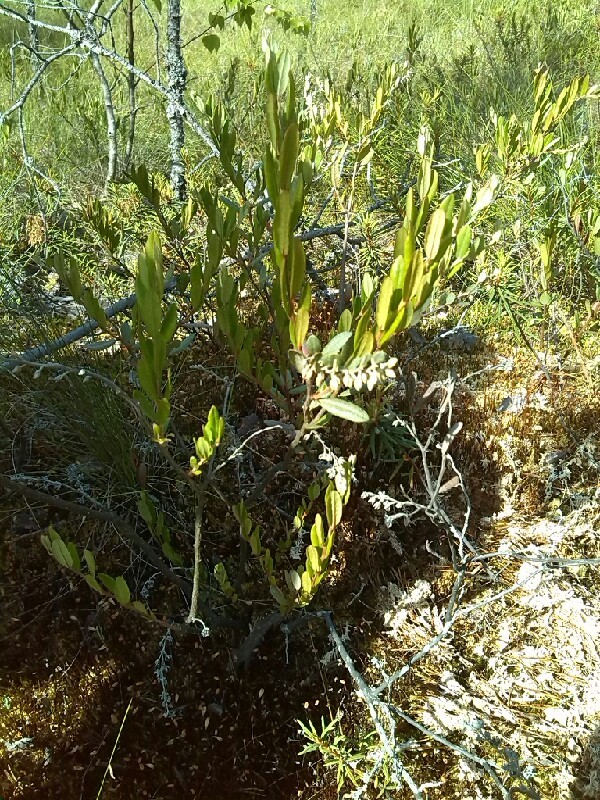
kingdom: Plantae
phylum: Tracheophyta
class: Magnoliopsida
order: Ericales
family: Ericaceae
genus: Chamaedaphne
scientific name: Chamaedaphne calyculata
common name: Leatherleaf
